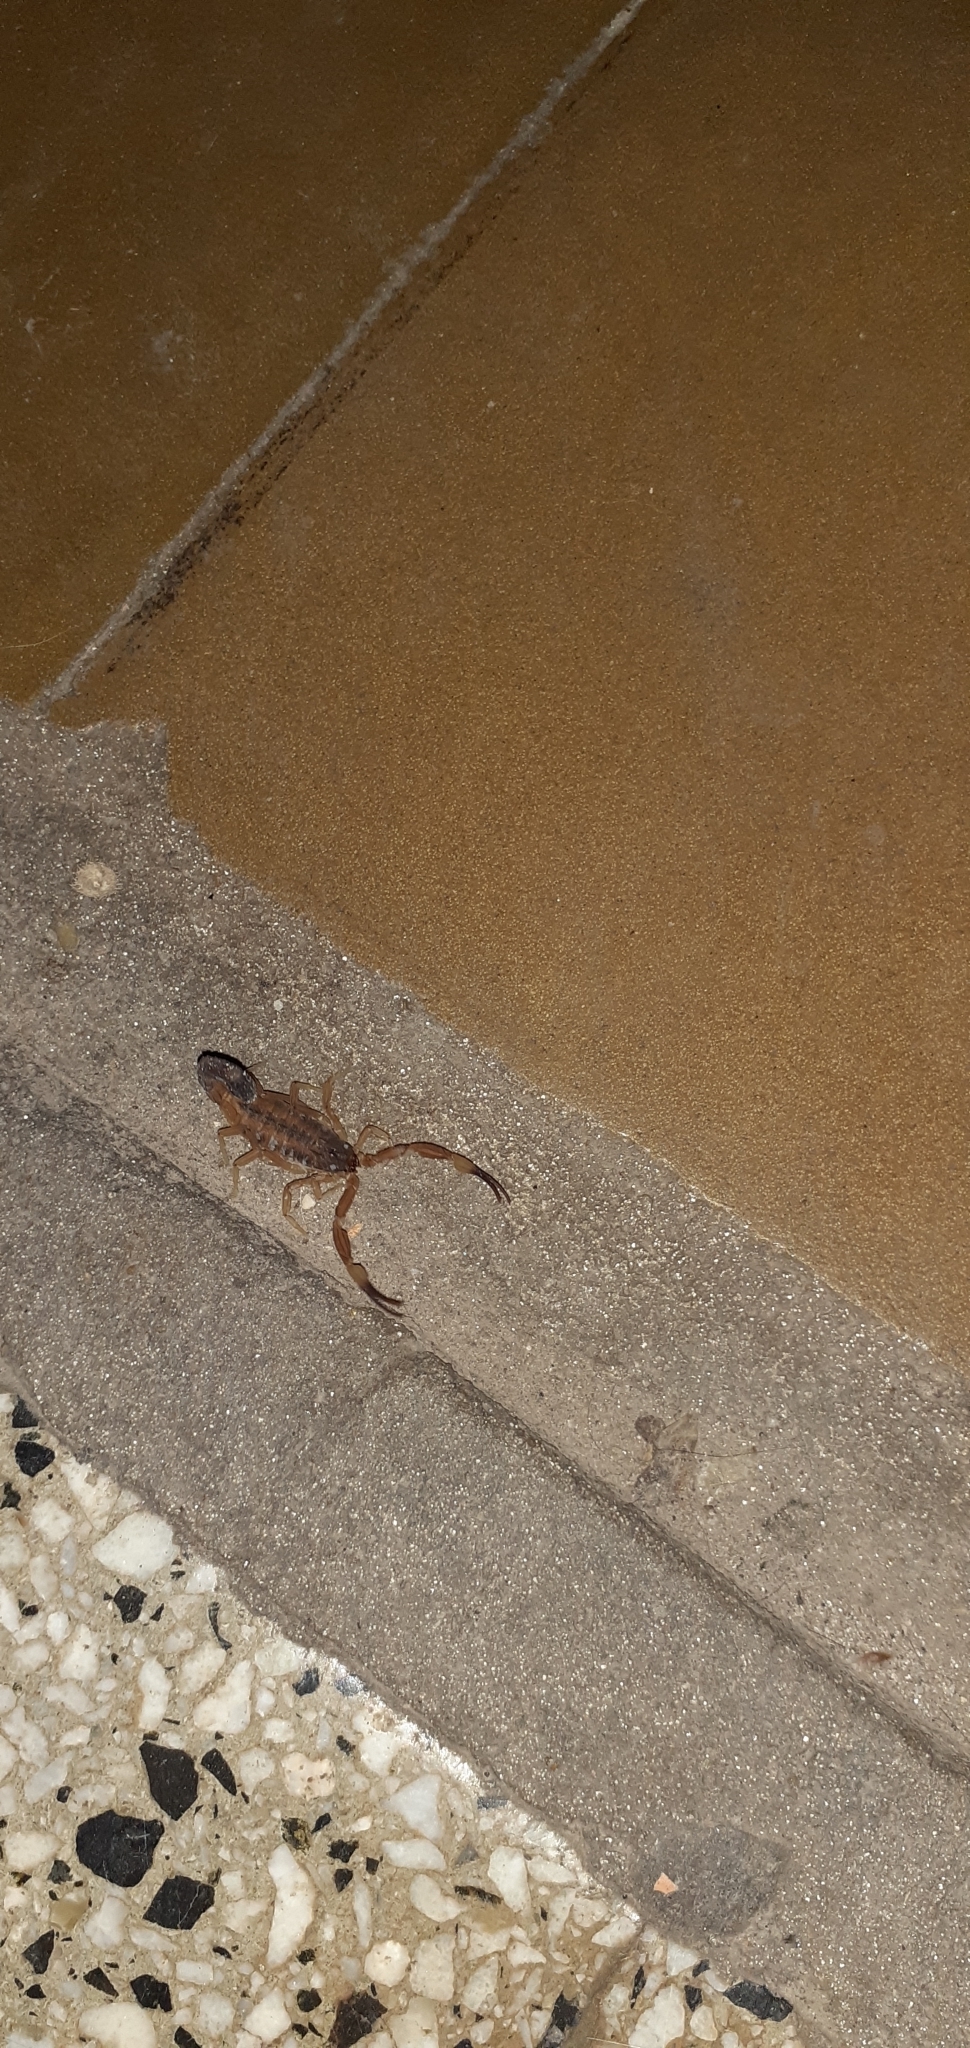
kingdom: Animalia
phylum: Arthropoda
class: Arachnida
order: Scorpiones
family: Buthidae
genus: Tityus
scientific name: Tityus carrilloi
